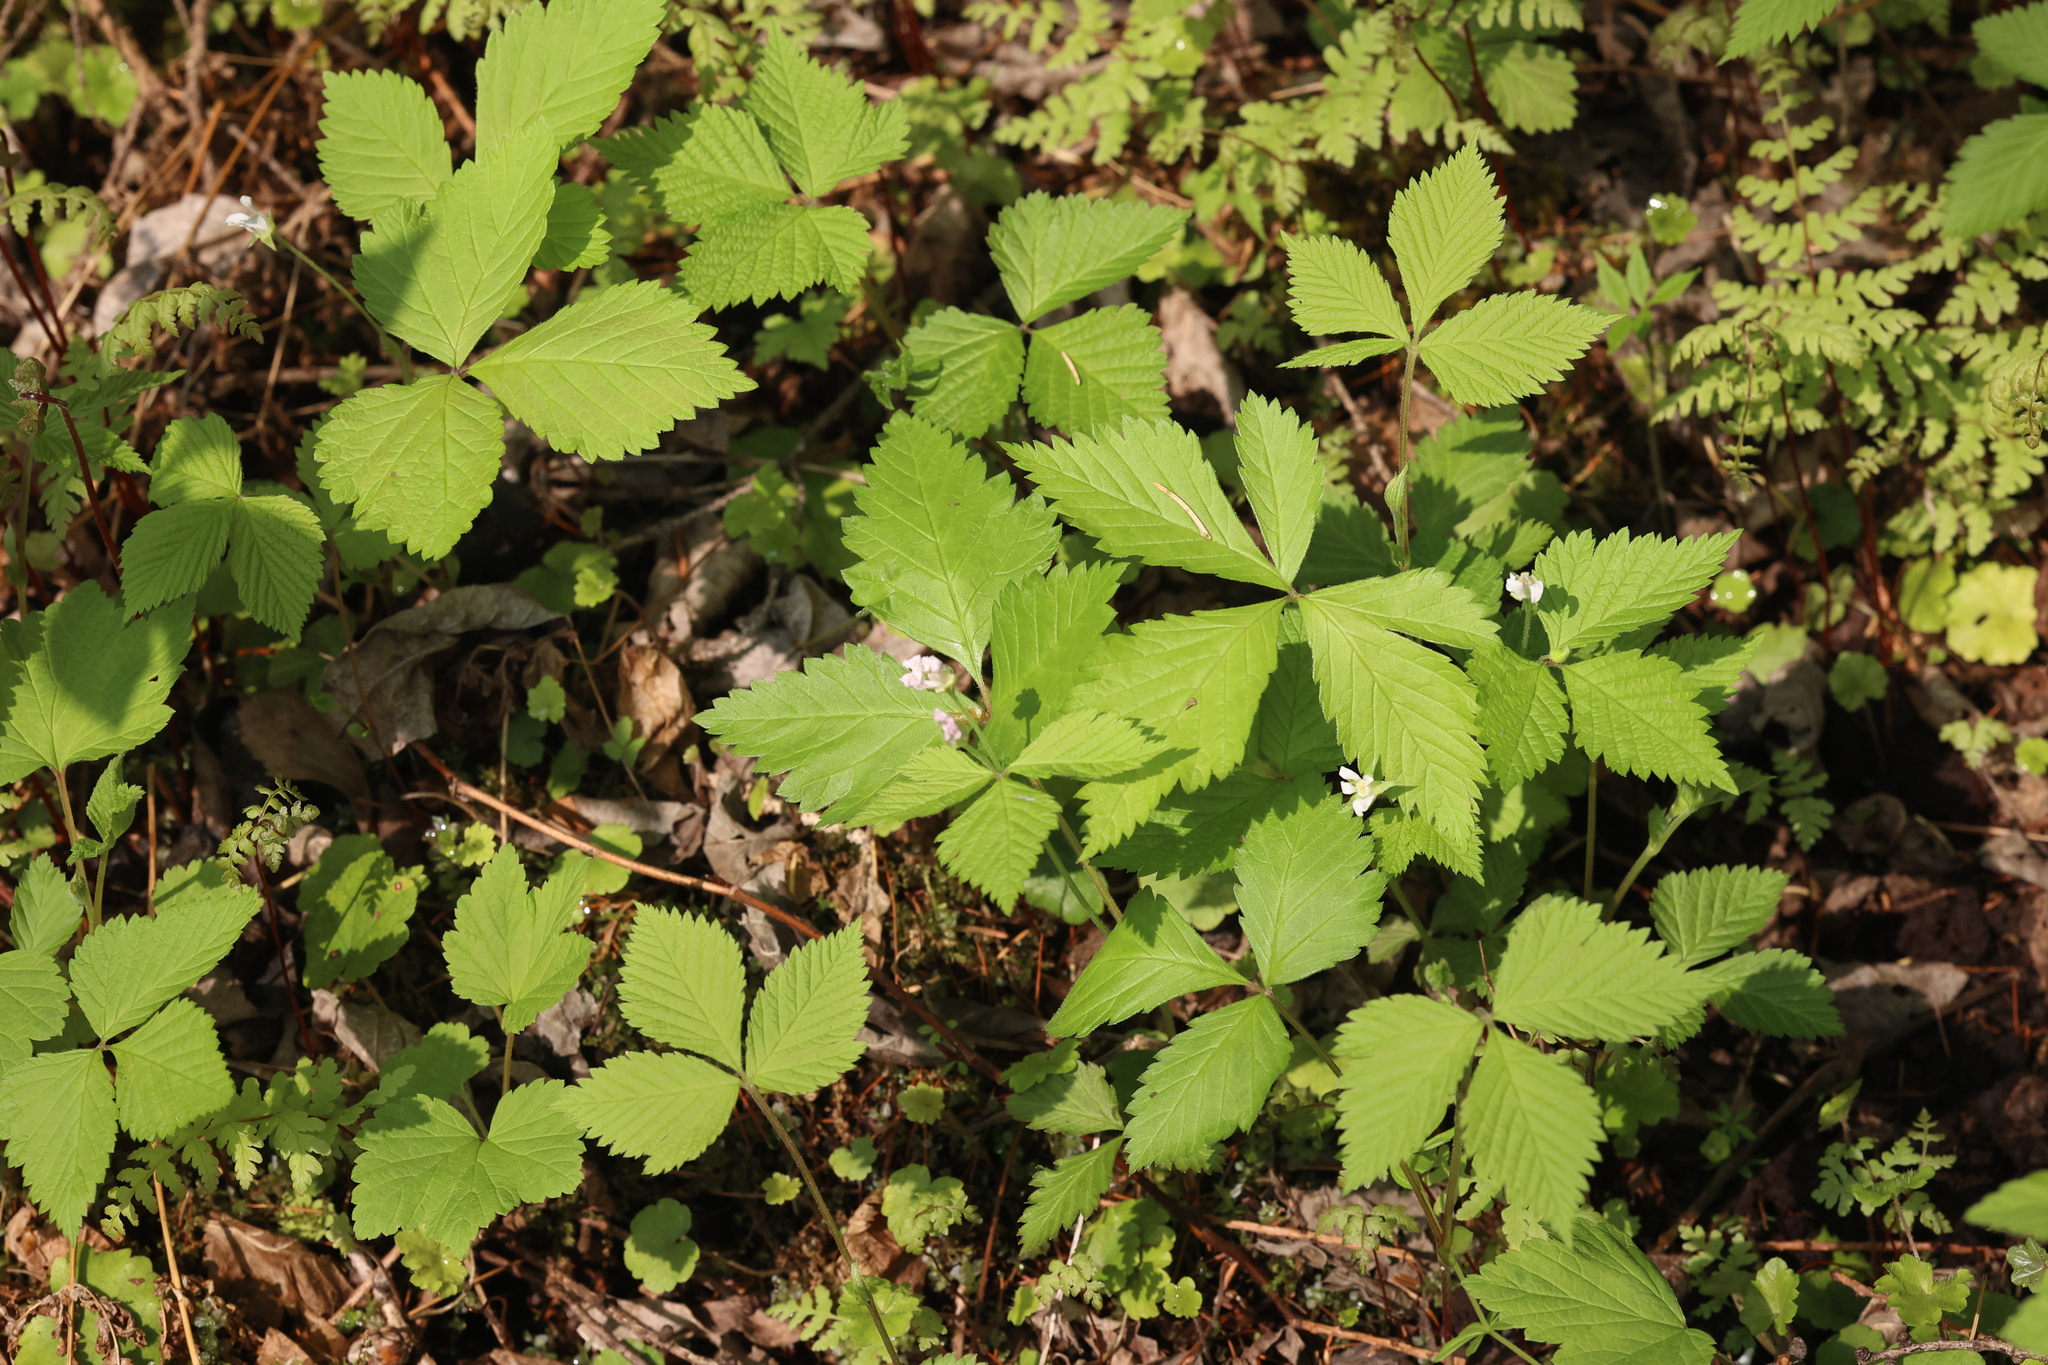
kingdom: Plantae
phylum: Tracheophyta
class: Magnoliopsida
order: Rosales
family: Rosaceae
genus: Rubus
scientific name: Rubus pubescens
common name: Dwarf raspberry
